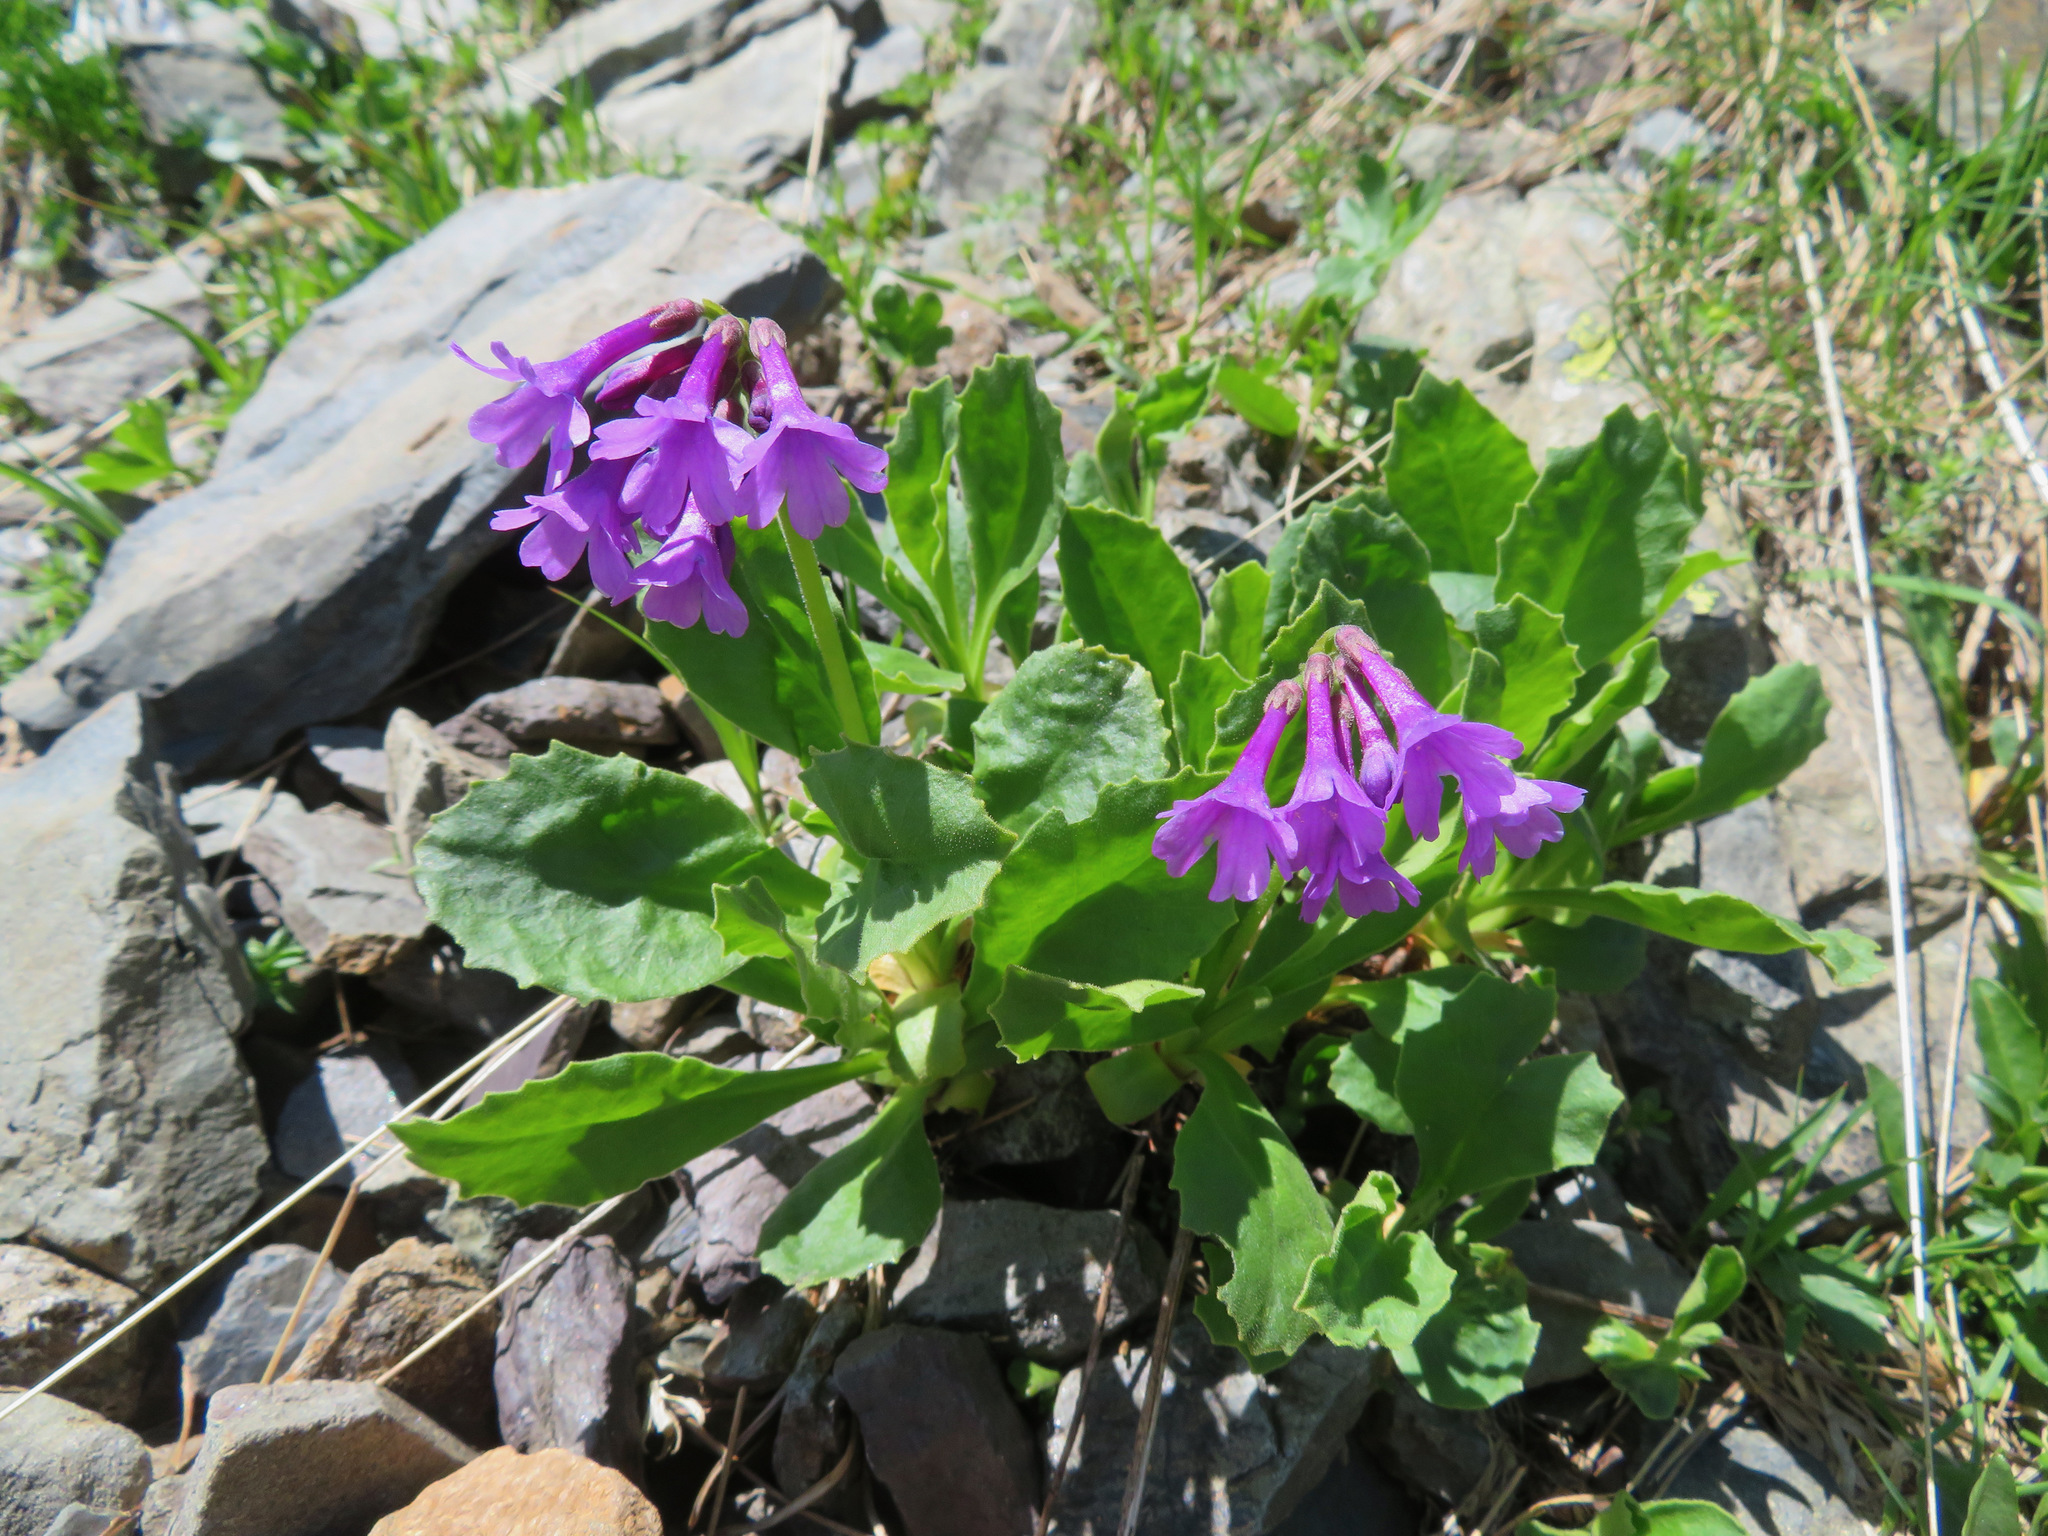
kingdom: Plantae
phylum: Tracheophyta
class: Magnoliopsida
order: Ericales
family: Primulaceae
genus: Primula
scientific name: Primula latifolia
